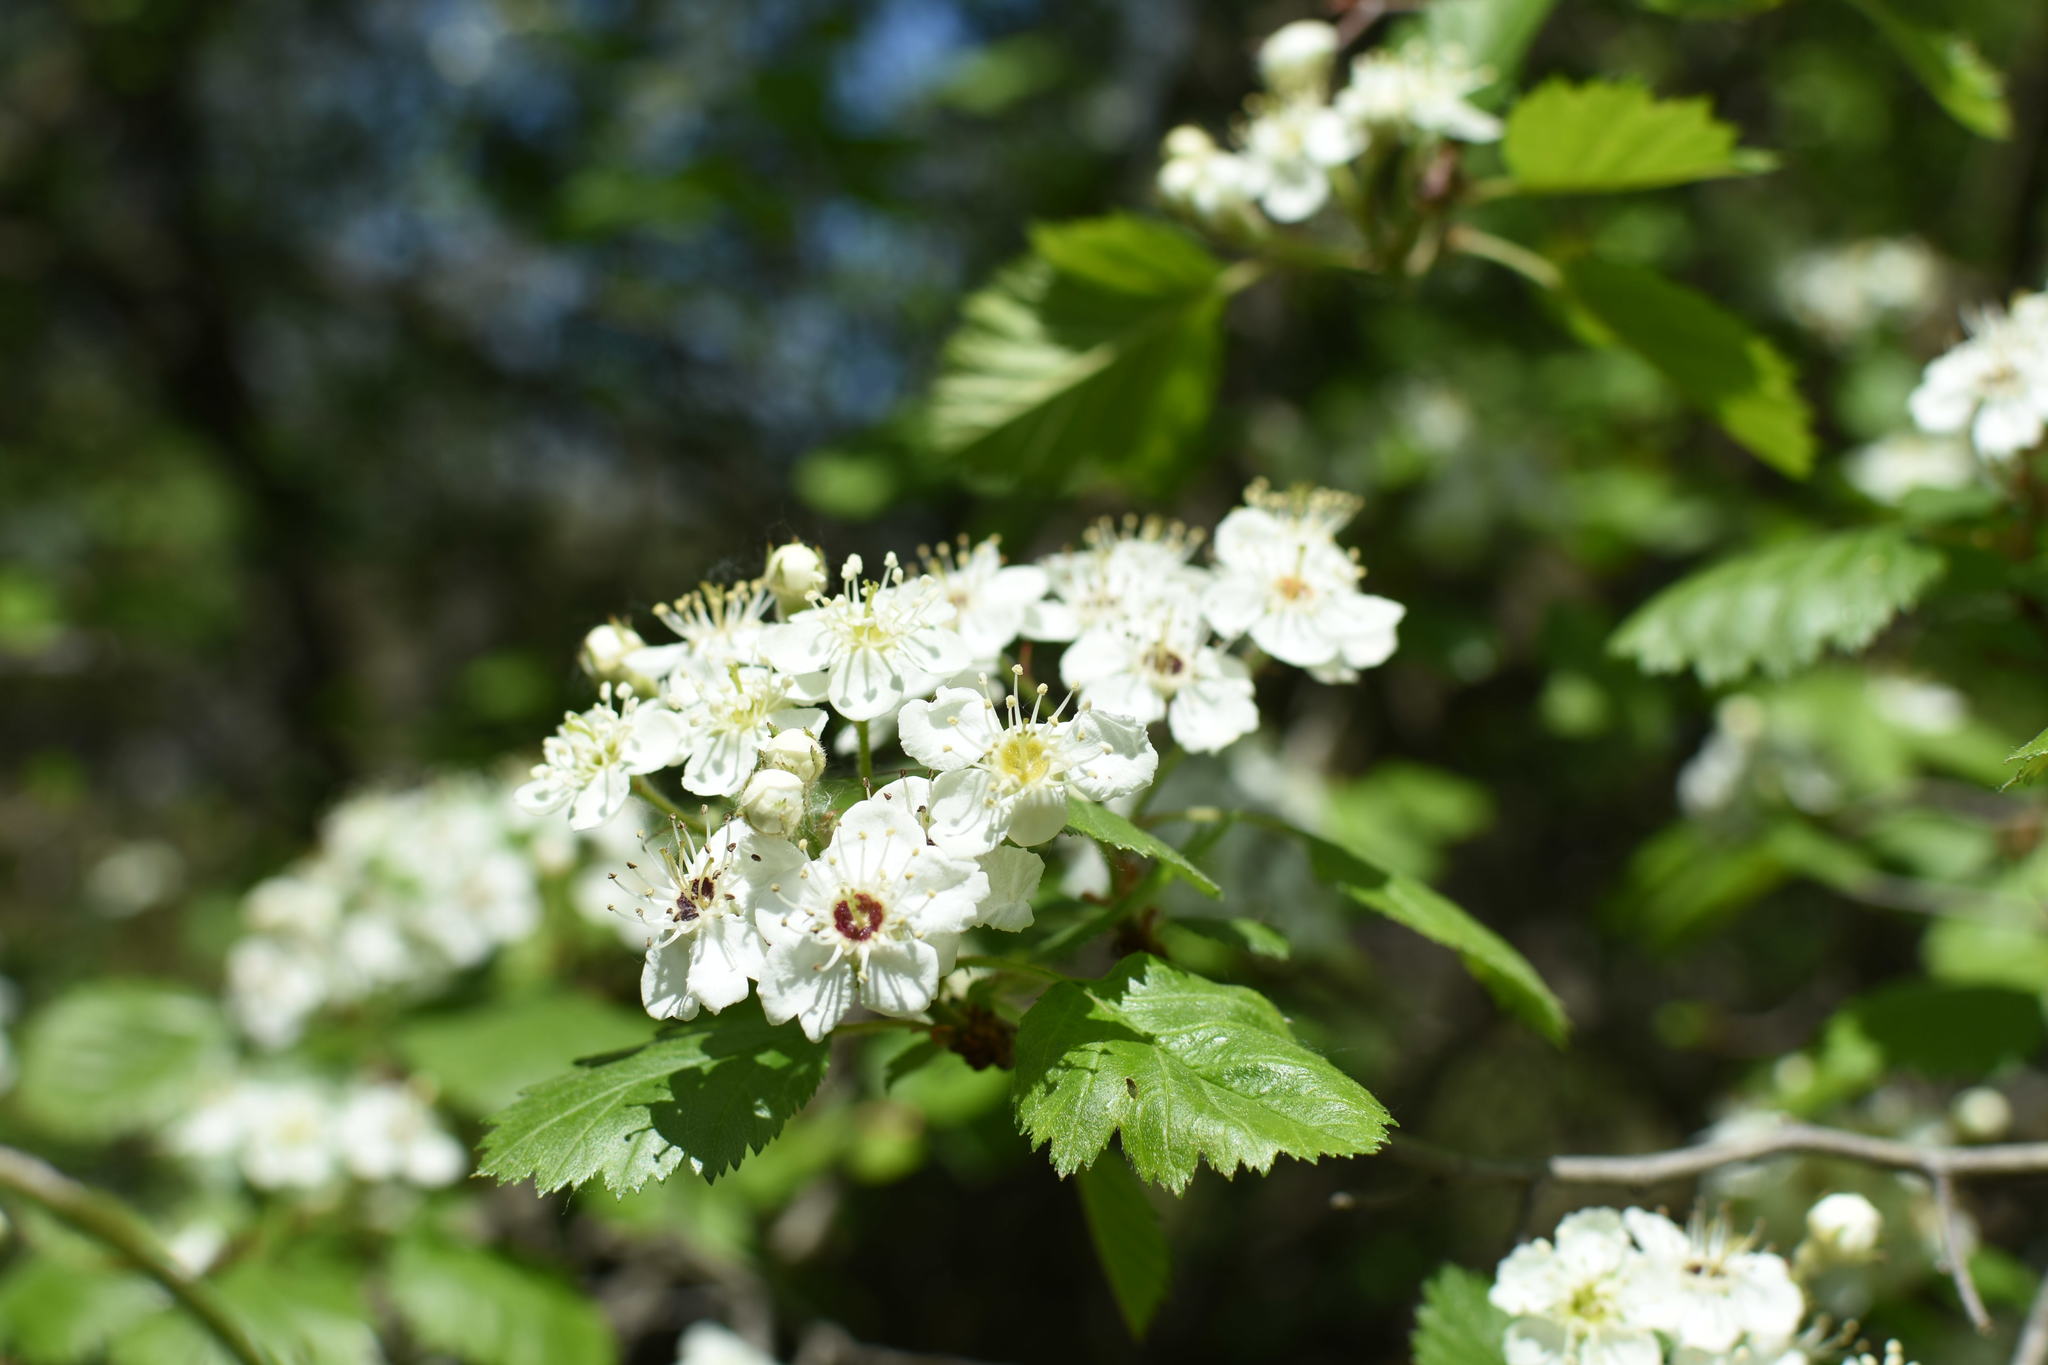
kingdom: Plantae
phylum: Tracheophyta
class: Magnoliopsida
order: Rosales
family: Rosaceae
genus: Crataegus
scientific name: Crataegus submollis
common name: Hairy cockspurthorn
